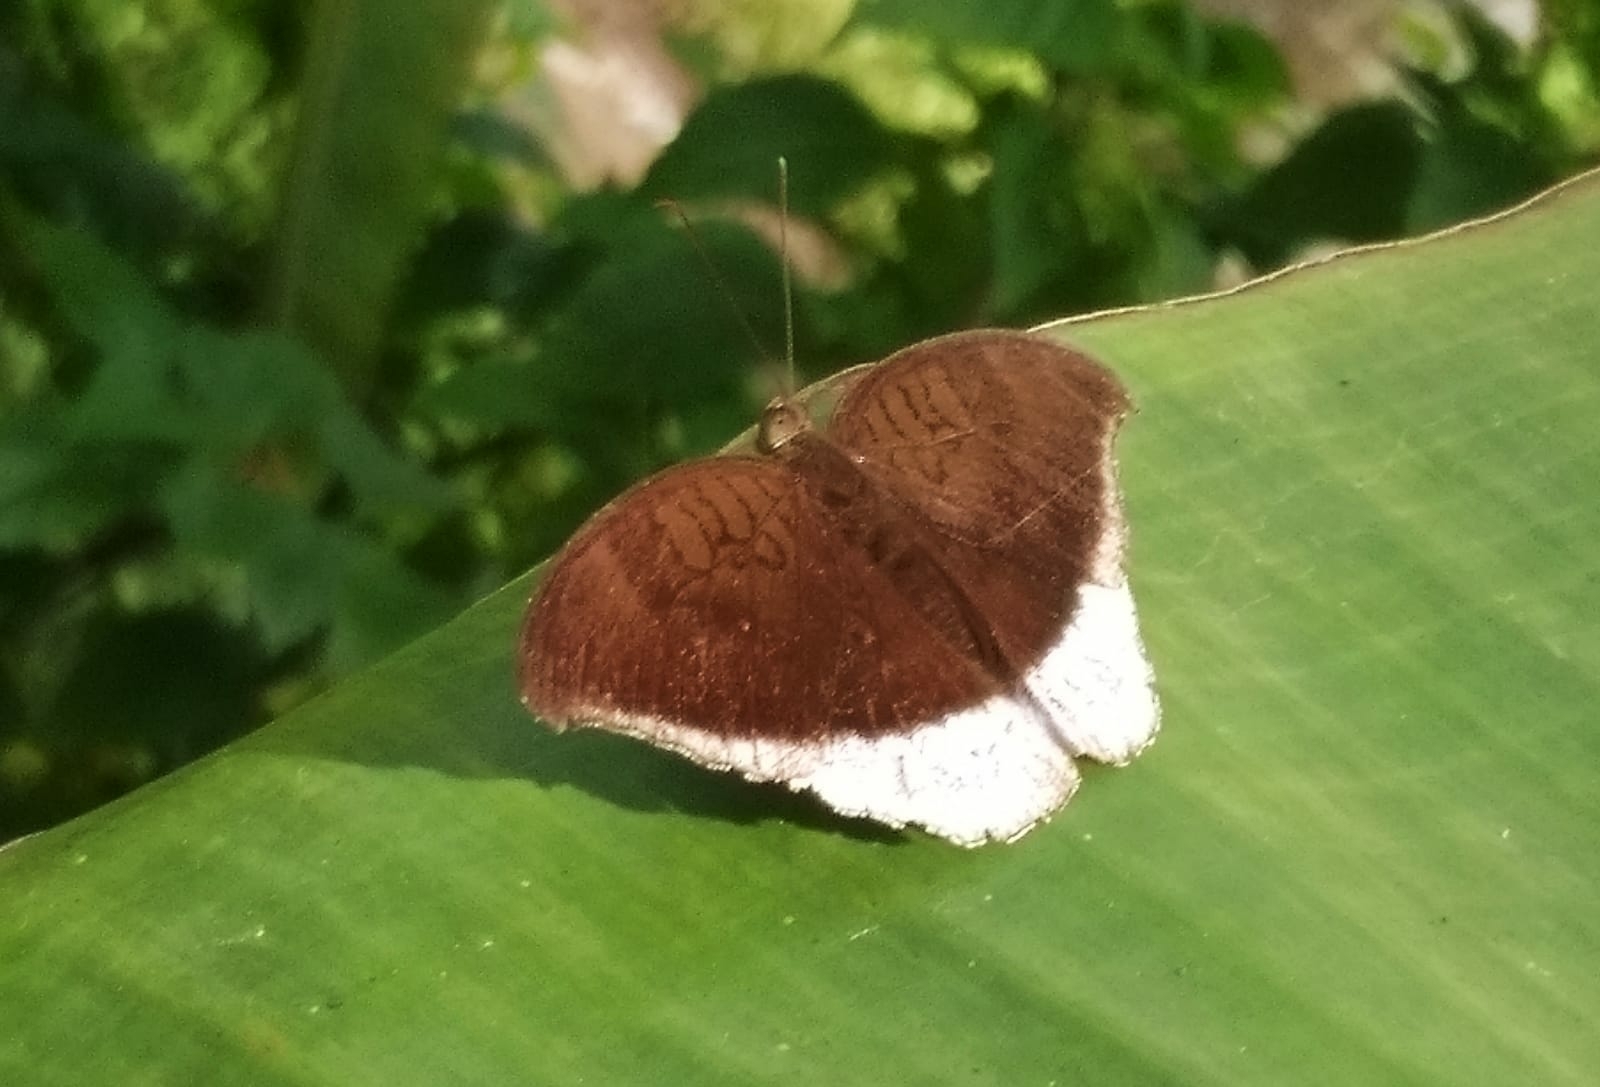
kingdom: Animalia
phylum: Arthropoda
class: Insecta
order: Lepidoptera
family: Nymphalidae
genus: Tanaecia
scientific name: Tanaecia lepidea
